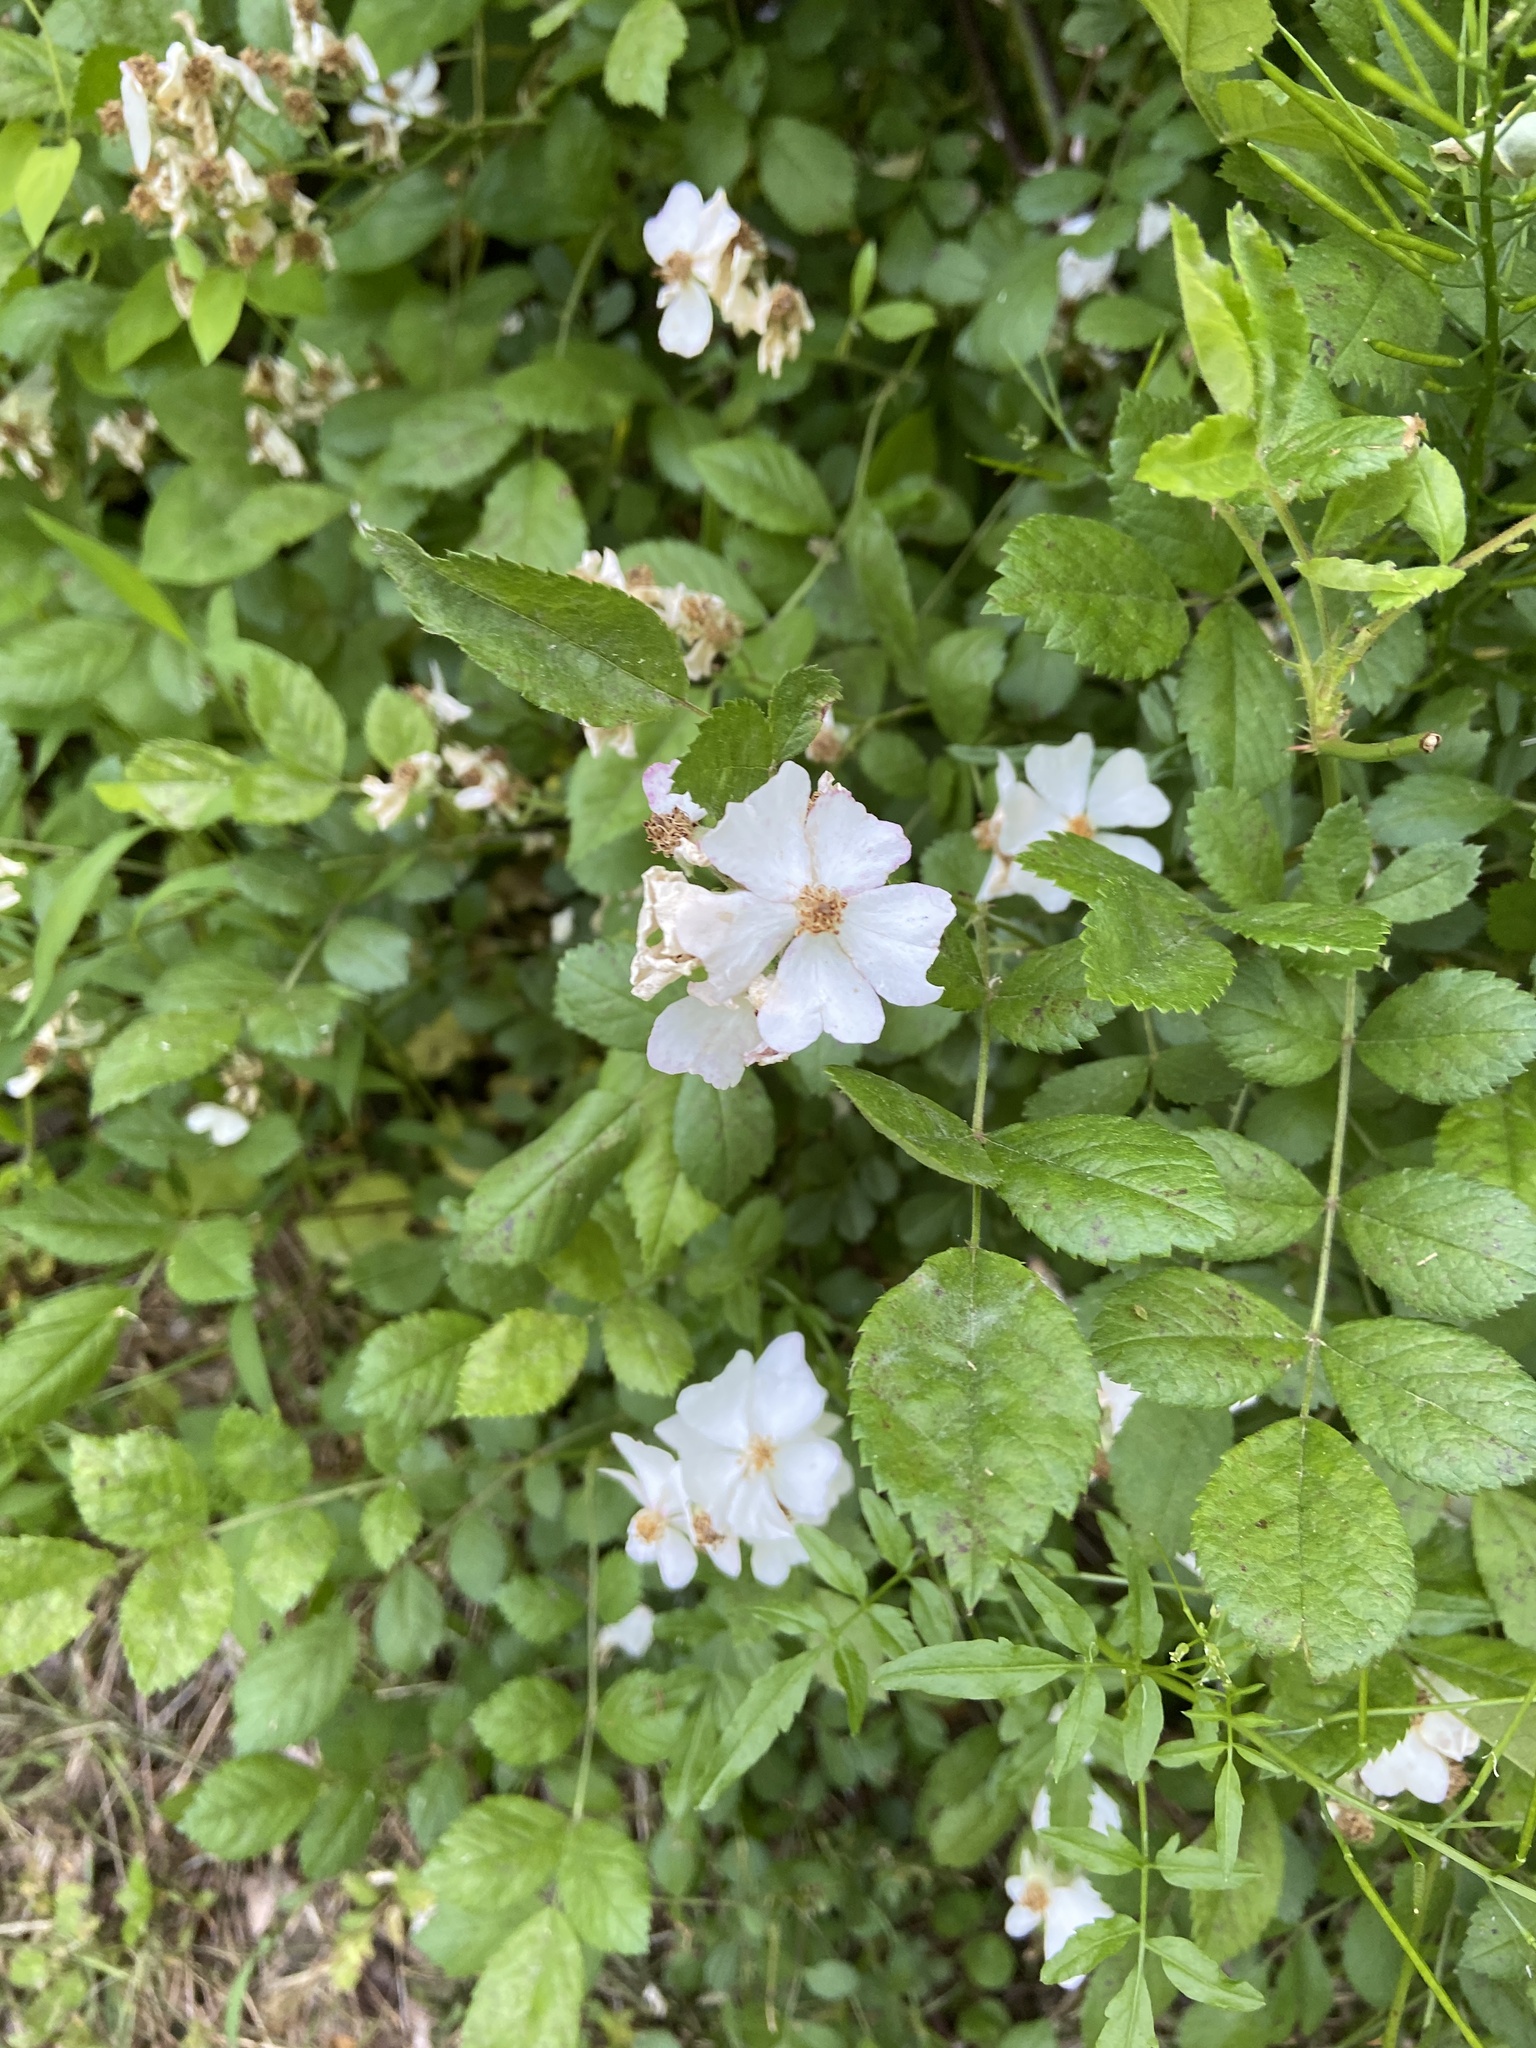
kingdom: Plantae
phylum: Tracheophyta
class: Magnoliopsida
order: Rosales
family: Rosaceae
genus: Rosa
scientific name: Rosa multiflora
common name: Multiflora rose
